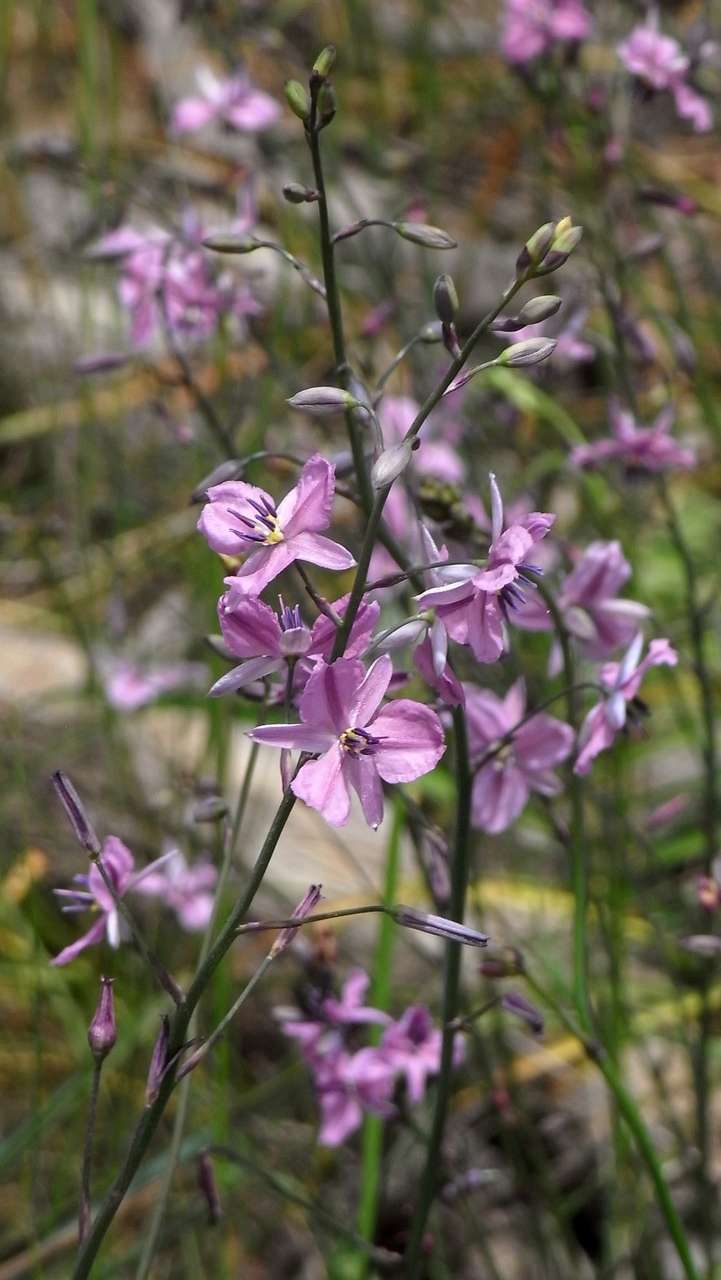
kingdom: Plantae
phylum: Tracheophyta
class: Liliopsida
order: Asparagales
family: Asparagaceae
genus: Arthropodium
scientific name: Arthropodium strictum
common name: Chocolate-lily
